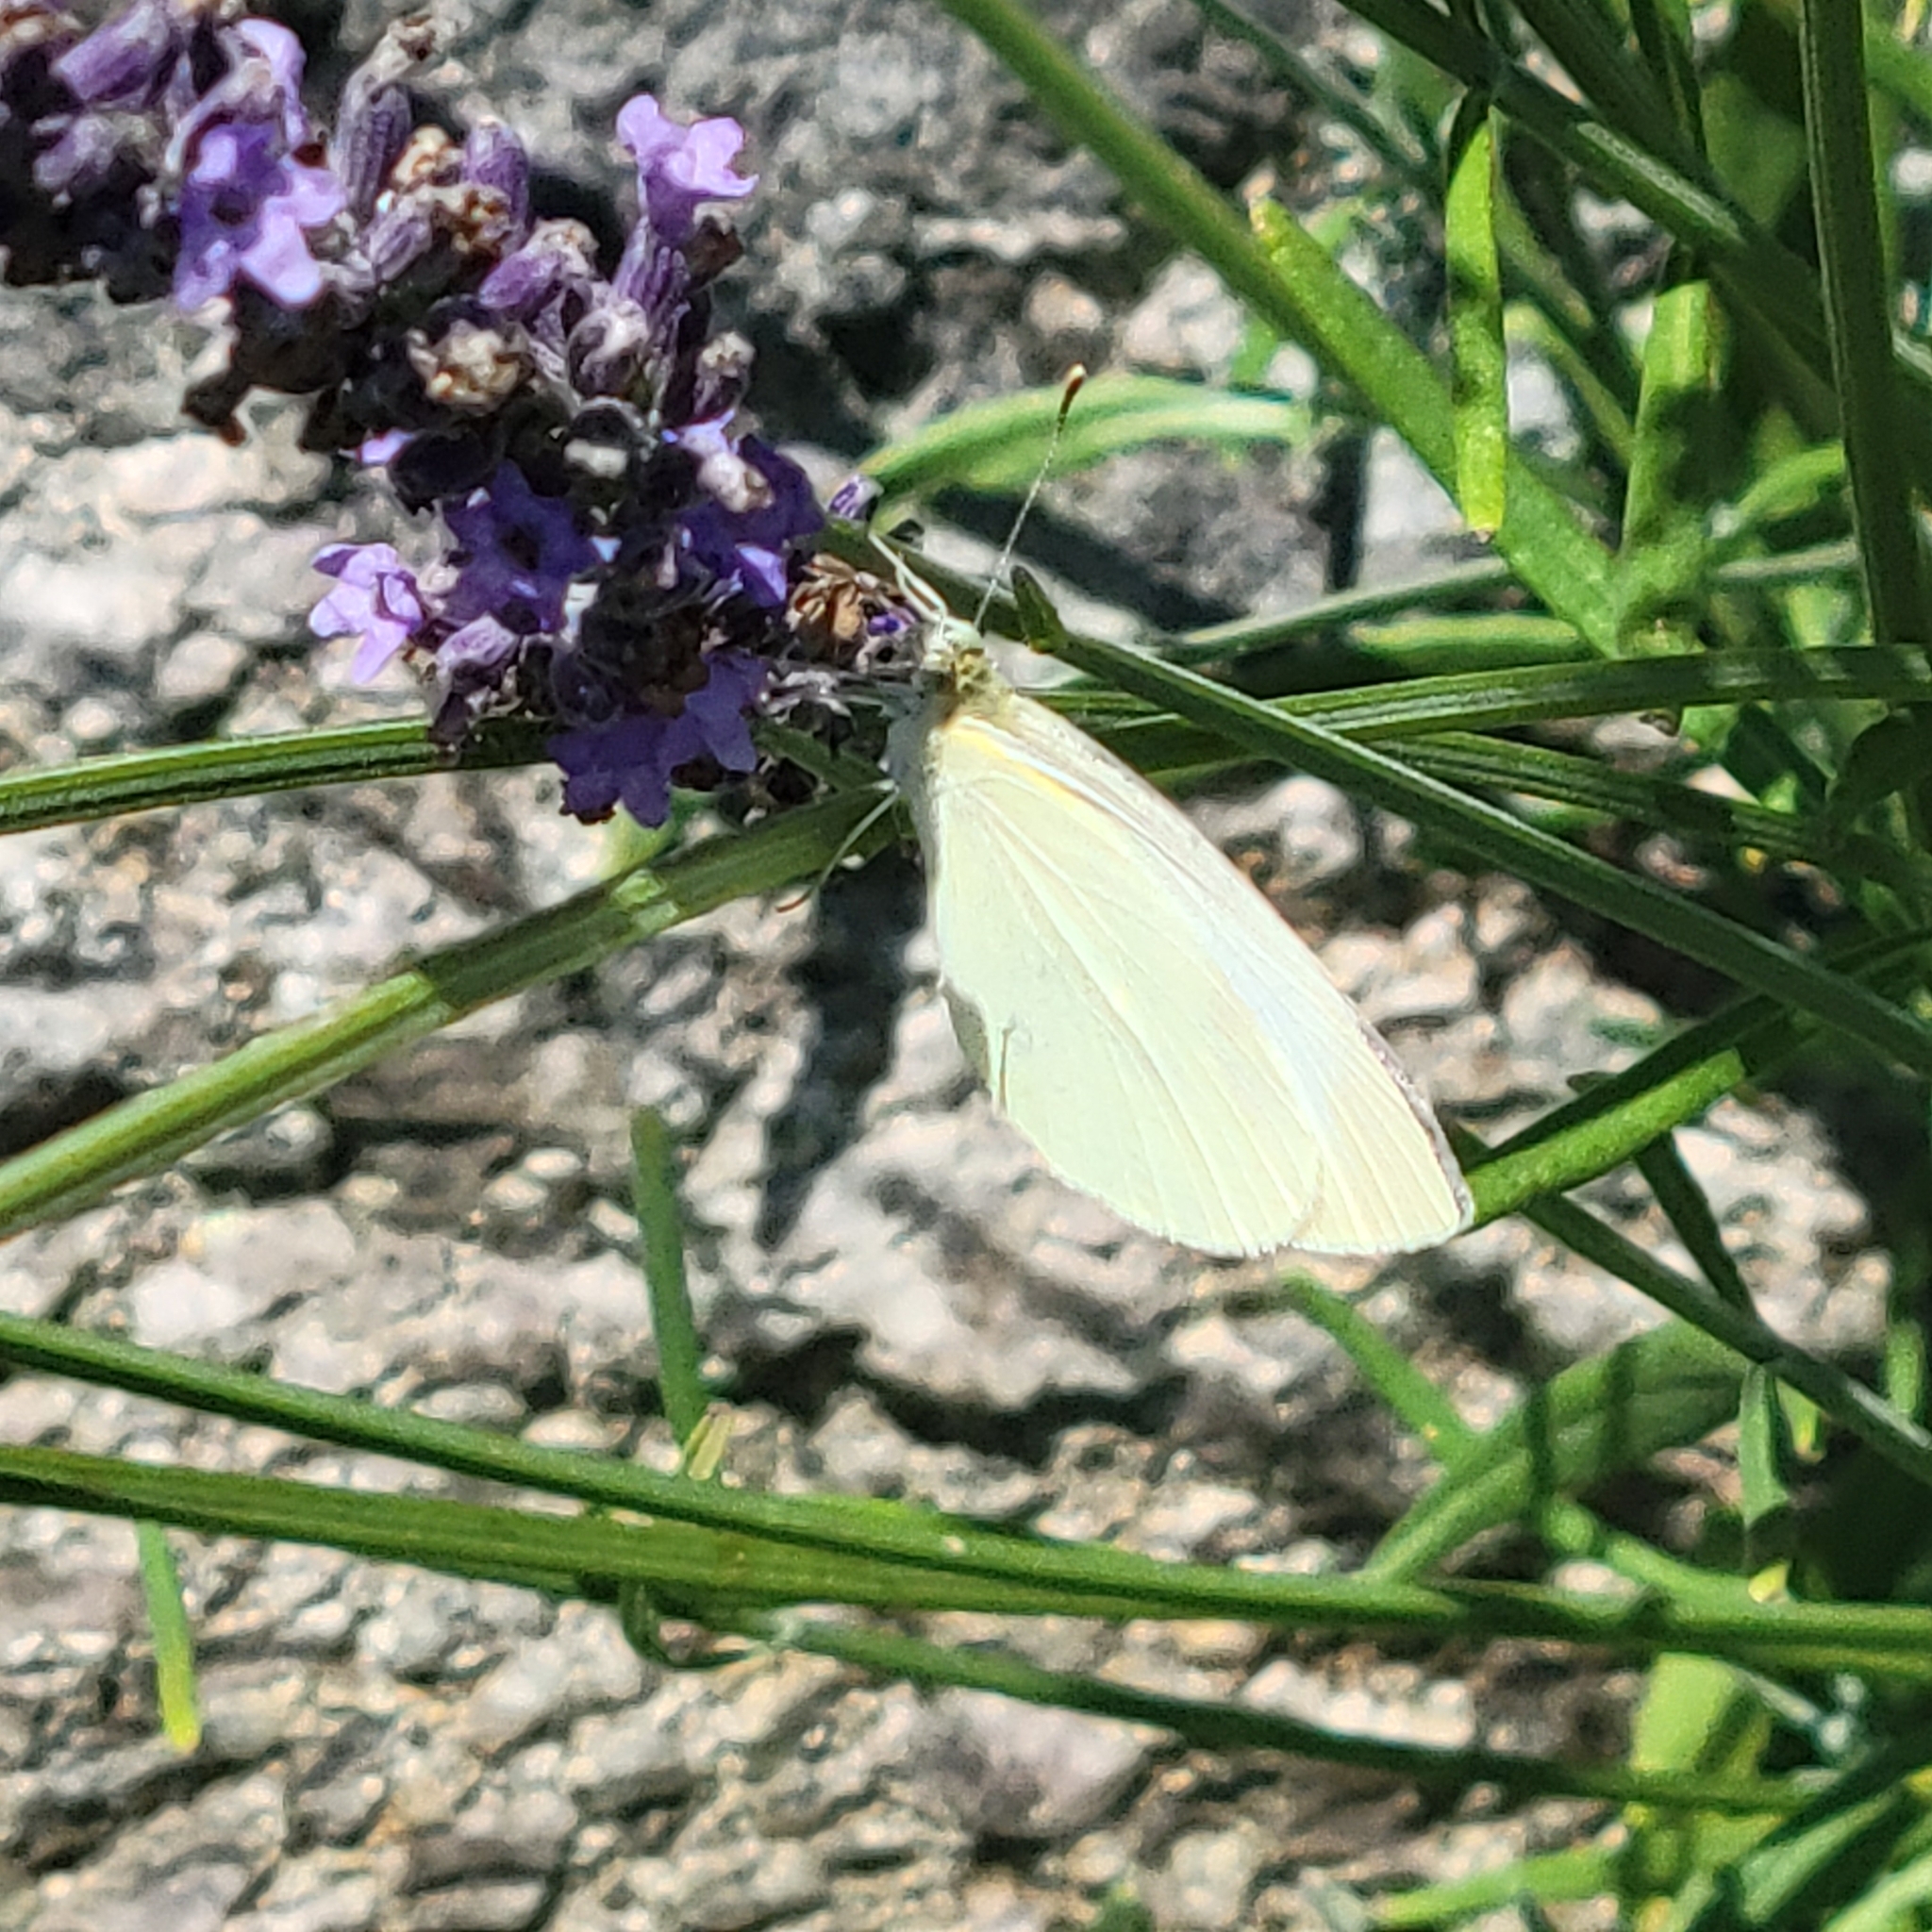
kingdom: Animalia
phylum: Arthropoda
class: Insecta
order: Lepidoptera
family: Pieridae
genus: Pieris
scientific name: Pieris rapae
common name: Small white
